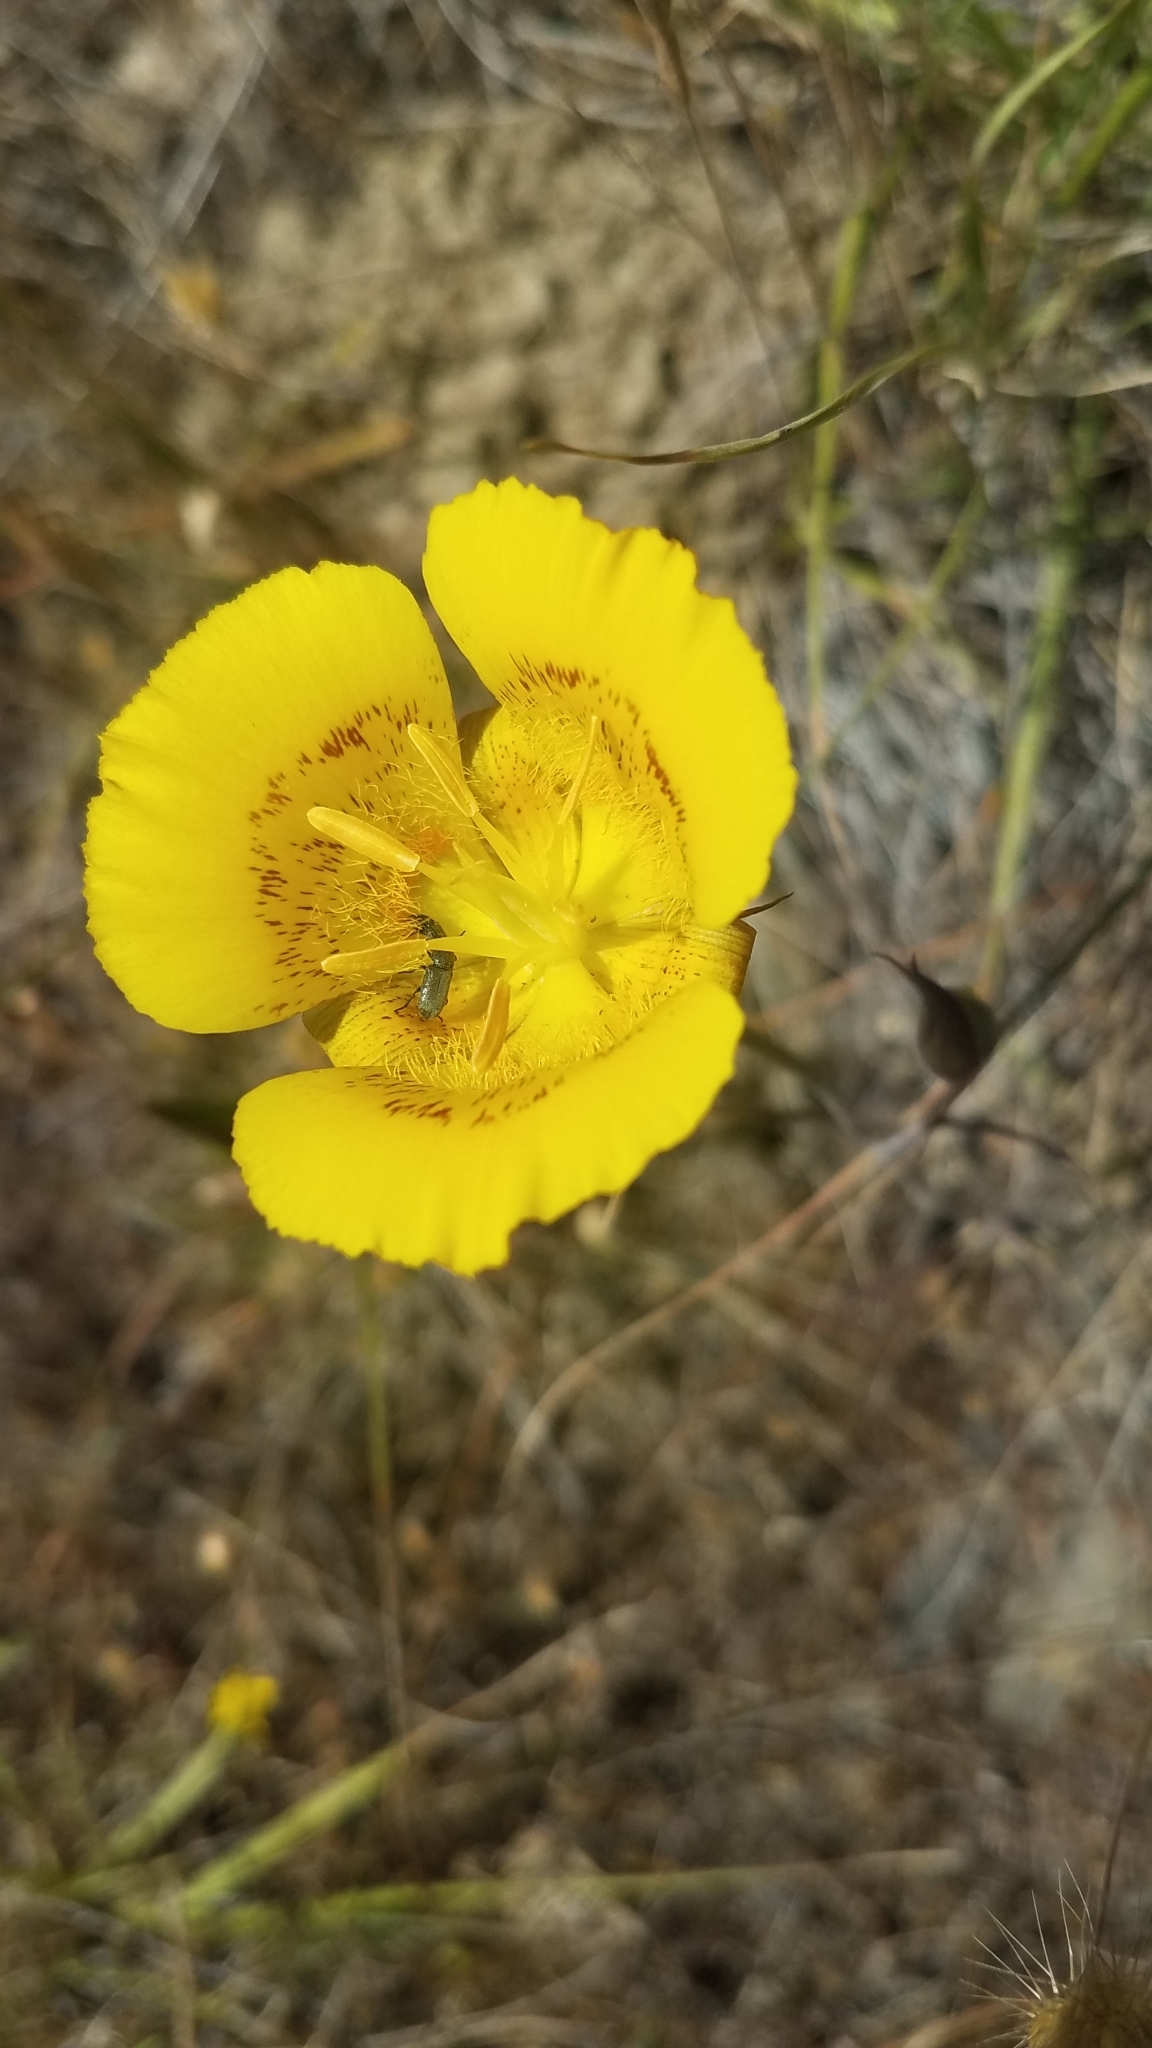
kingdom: Plantae
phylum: Tracheophyta
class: Liliopsida
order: Liliales
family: Liliaceae
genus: Calochortus
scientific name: Calochortus luteus
